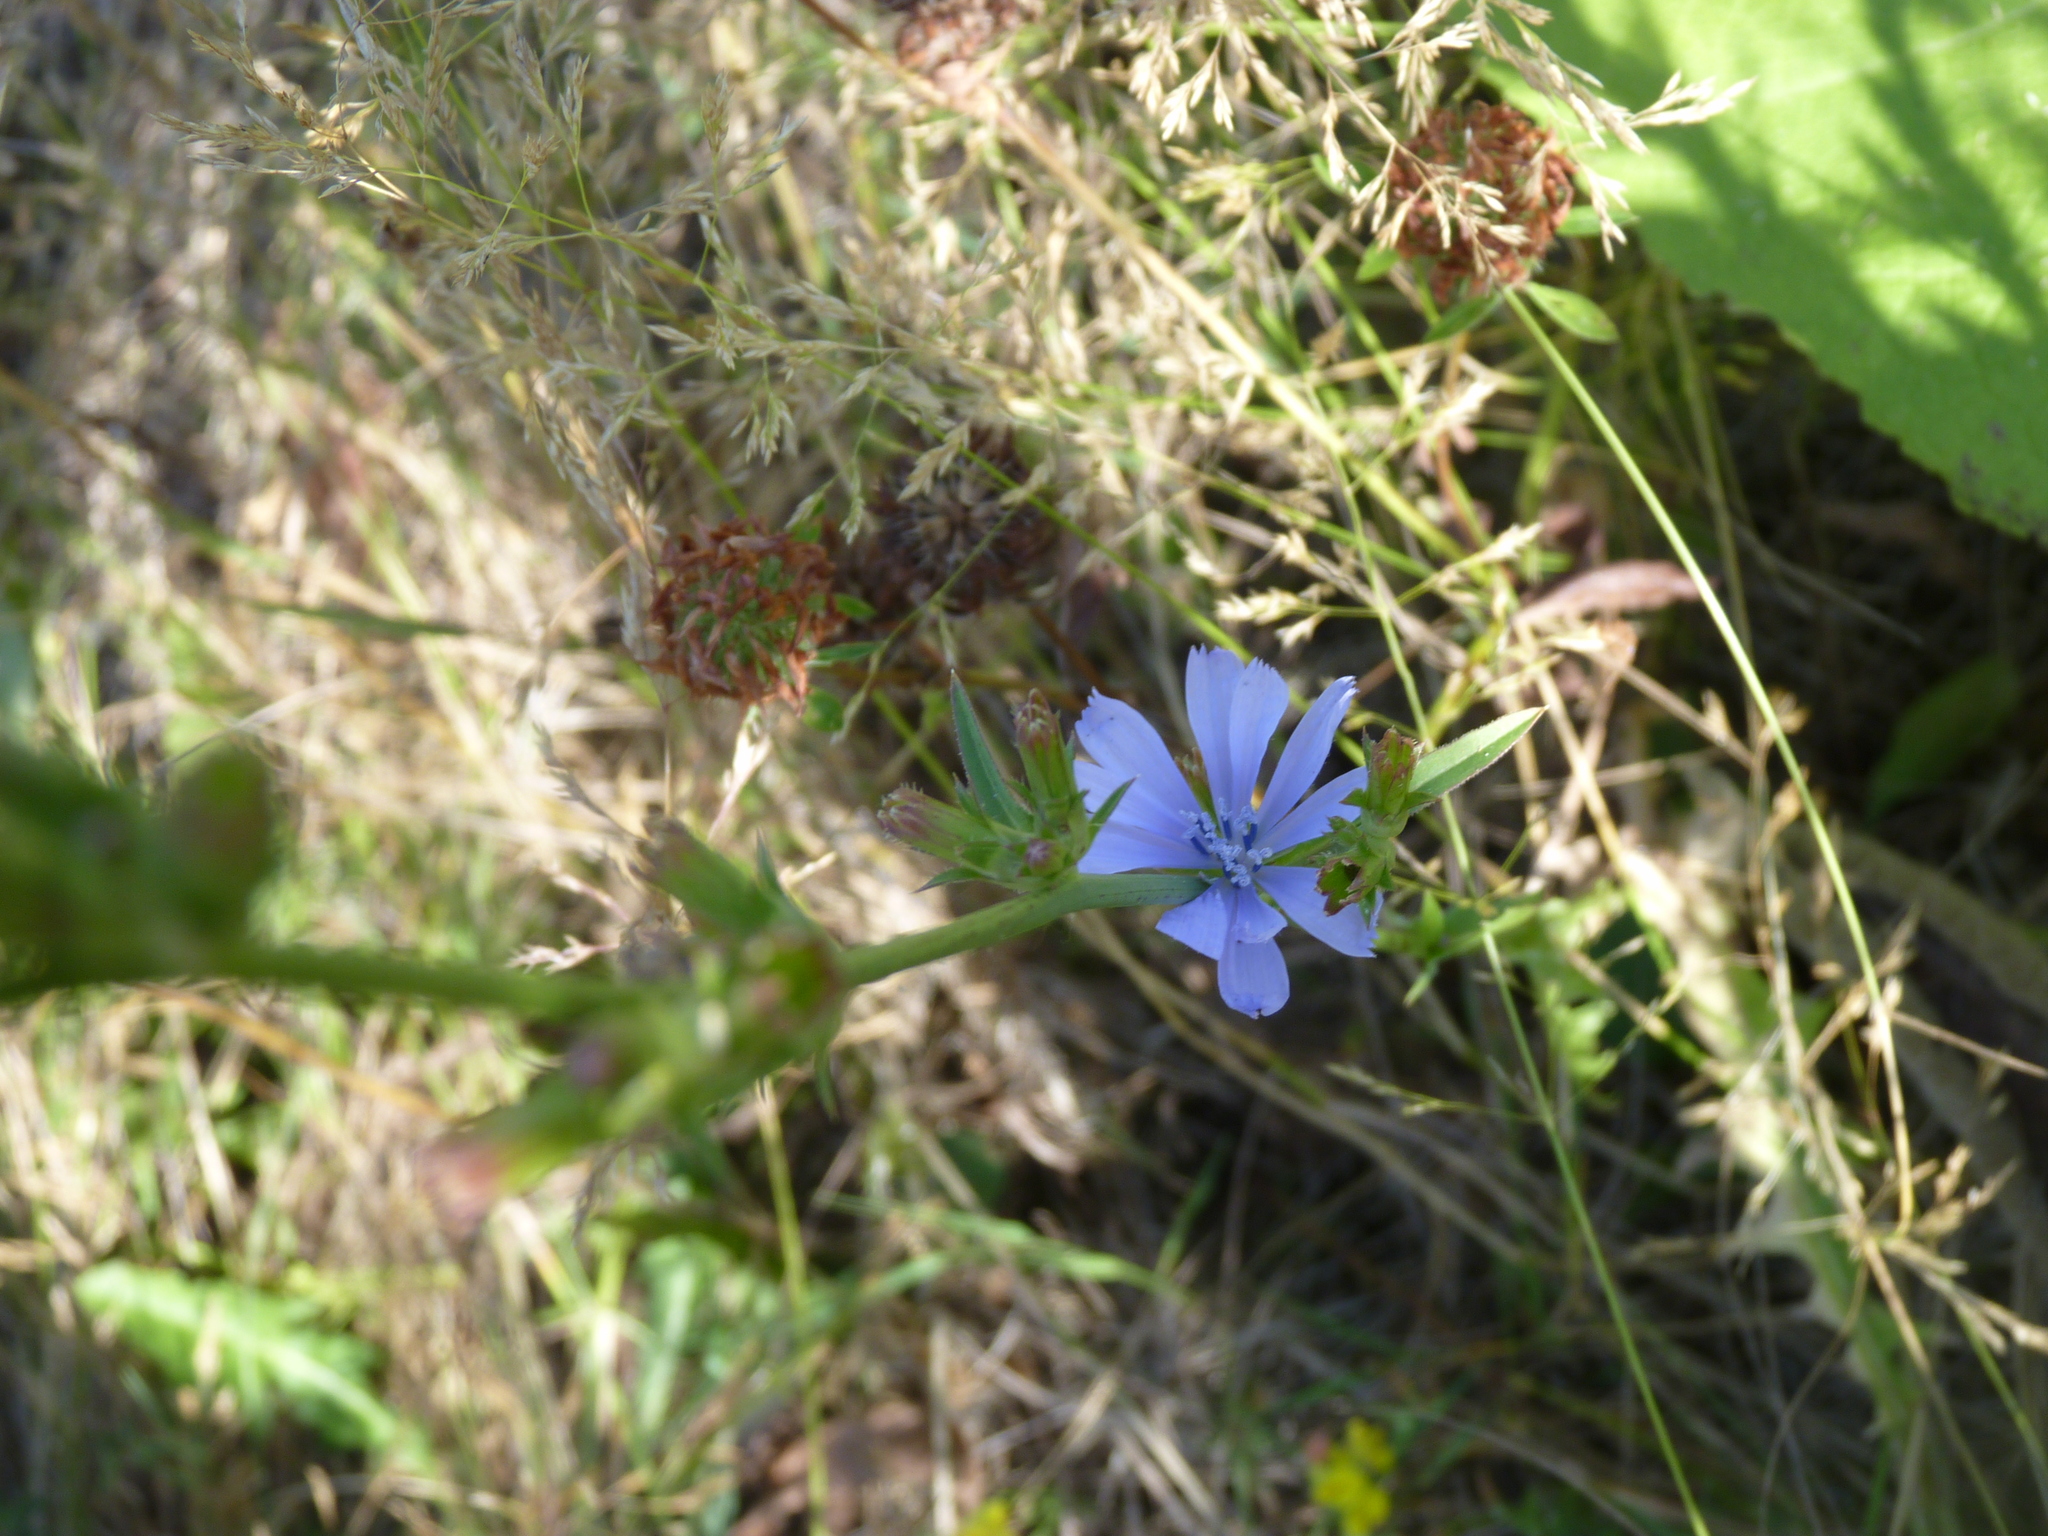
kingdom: Plantae
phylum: Tracheophyta
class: Magnoliopsida
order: Asterales
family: Asteraceae
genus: Cichorium
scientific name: Cichorium intybus
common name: Chicory
